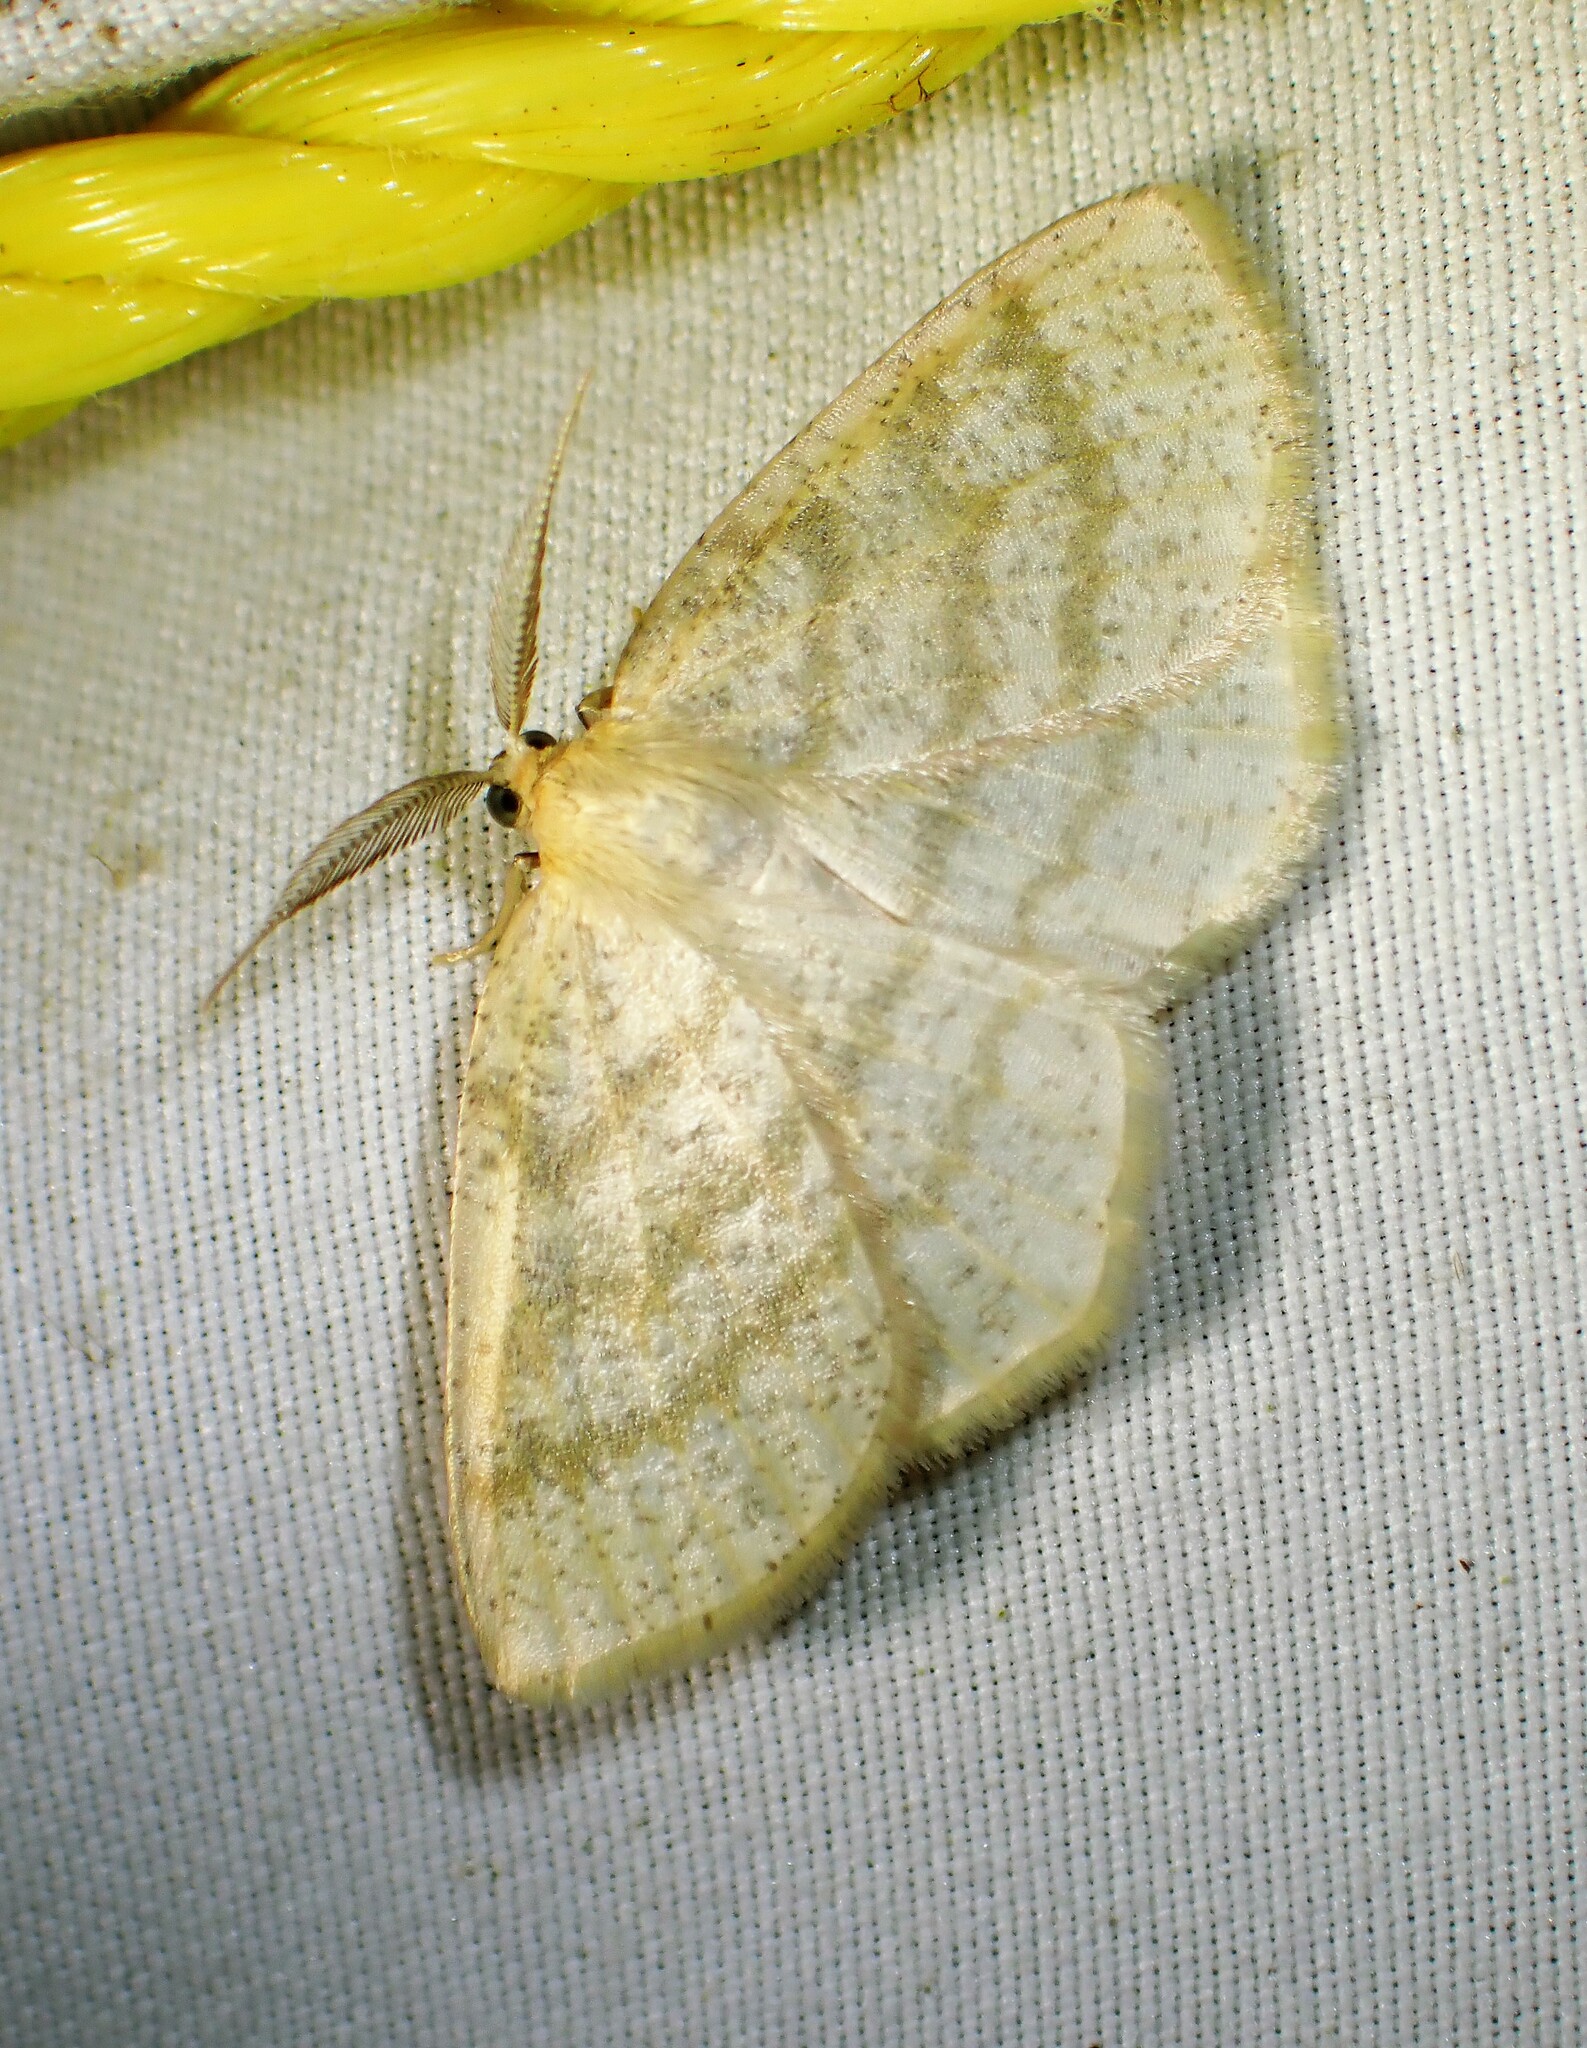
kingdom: Animalia
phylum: Arthropoda
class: Insecta
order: Lepidoptera
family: Geometridae
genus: Cabera
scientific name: Cabera erythemaria
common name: Yellow-dusted cream moth
